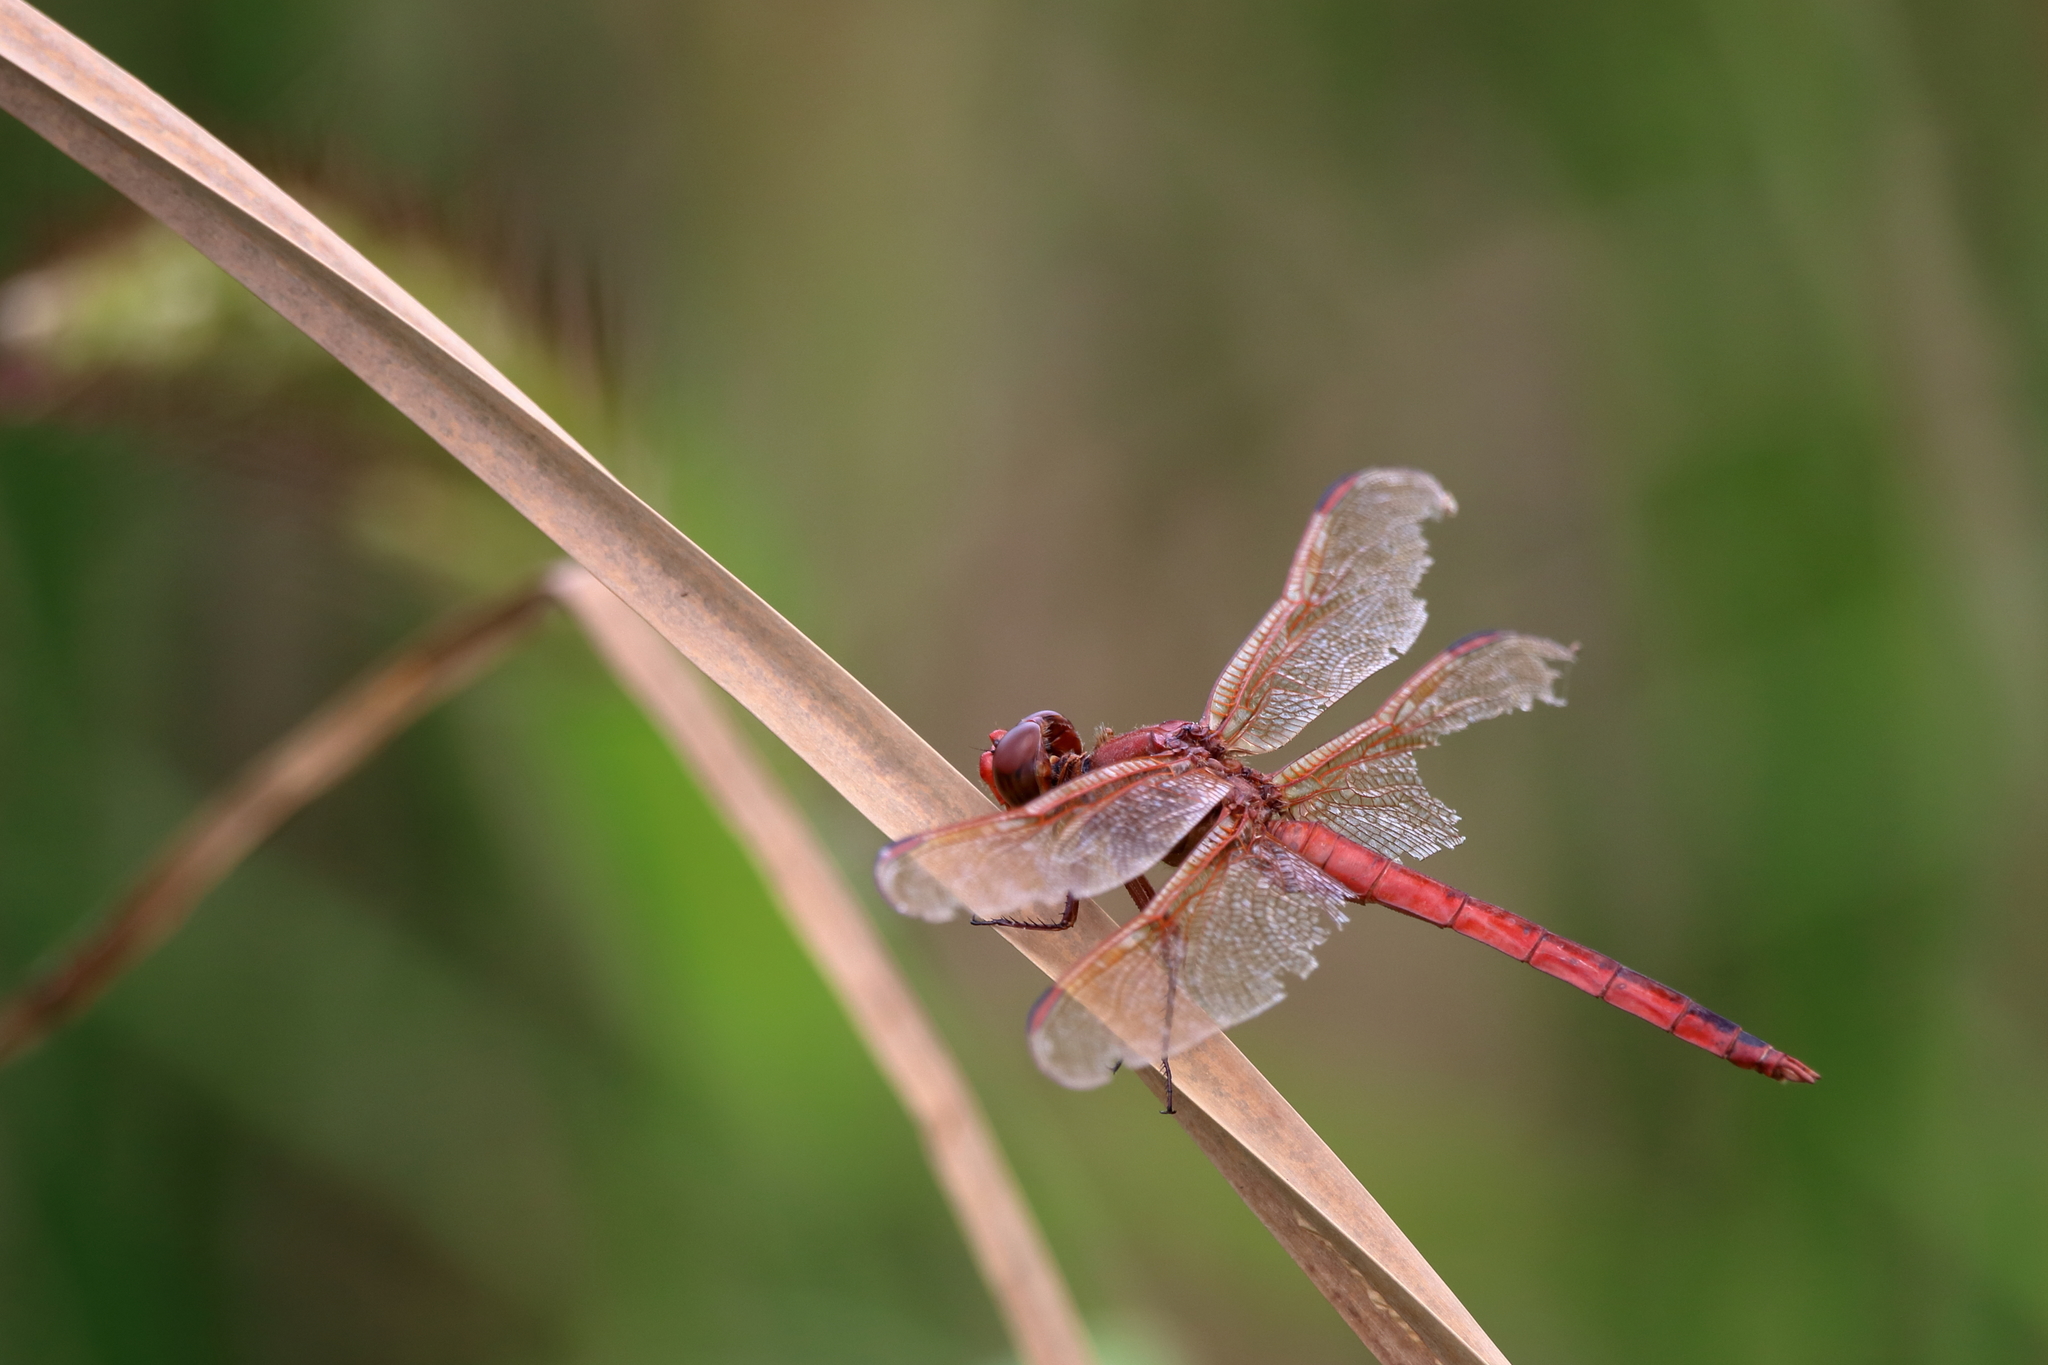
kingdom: Animalia
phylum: Arthropoda
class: Insecta
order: Odonata
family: Libellulidae
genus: Libellula
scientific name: Libellula
